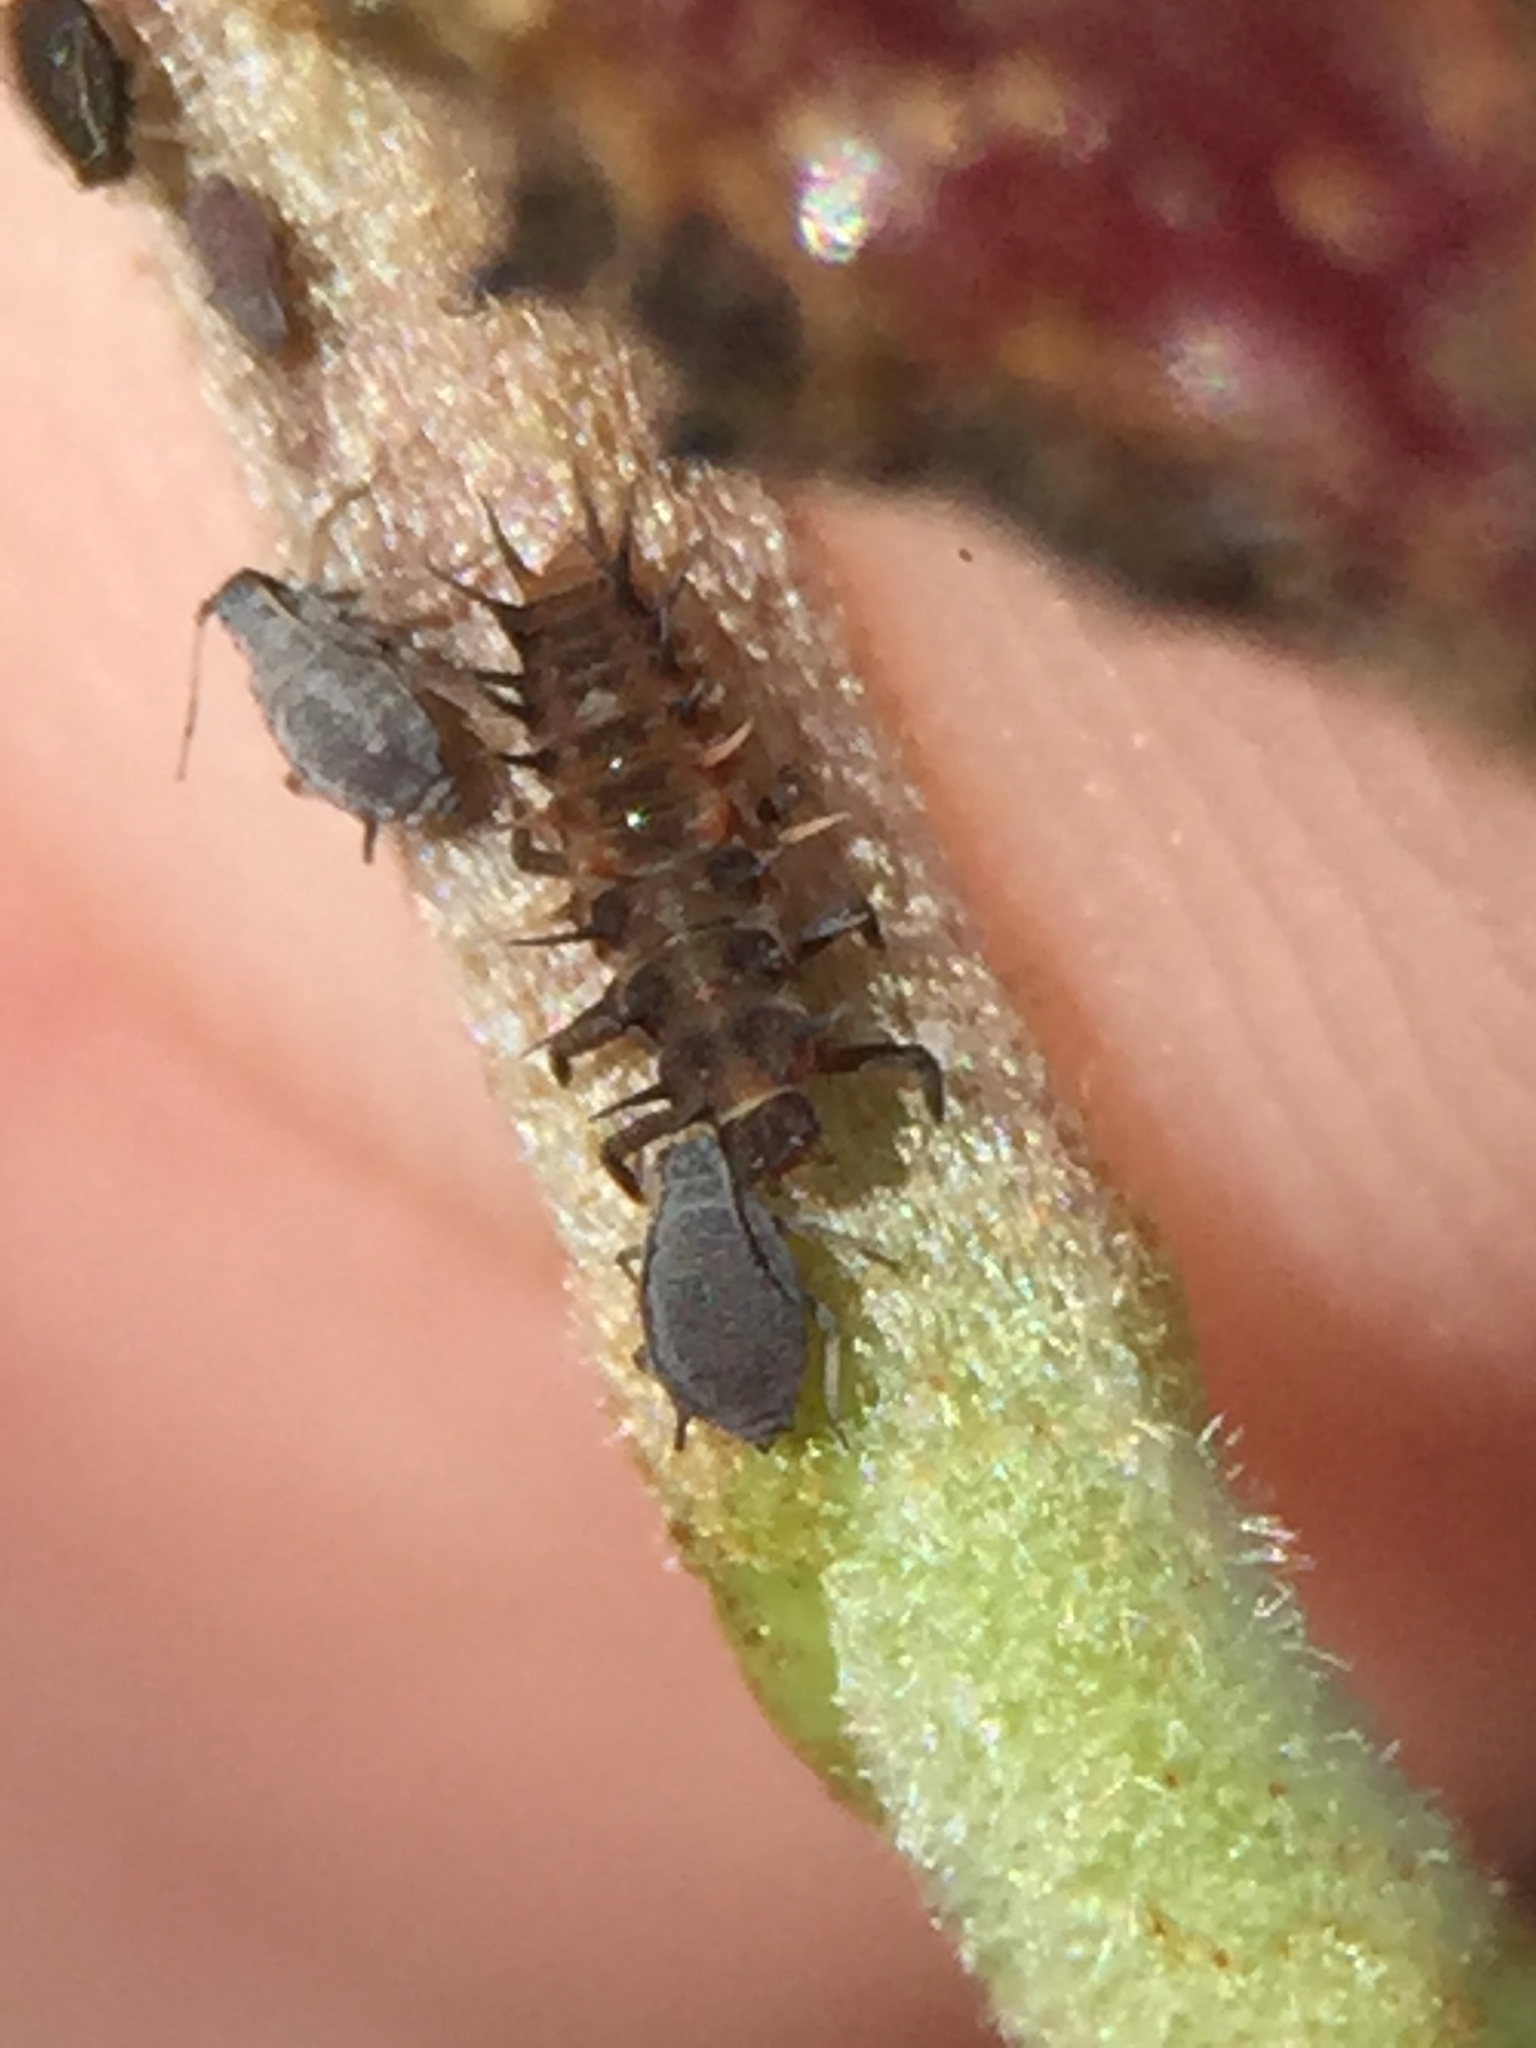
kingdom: Animalia
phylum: Arthropoda
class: Insecta
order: Coleoptera
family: Coccinellidae
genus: Scymnodes
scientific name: Scymnodes lividigaster
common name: Yellowshouldered lady beetle
